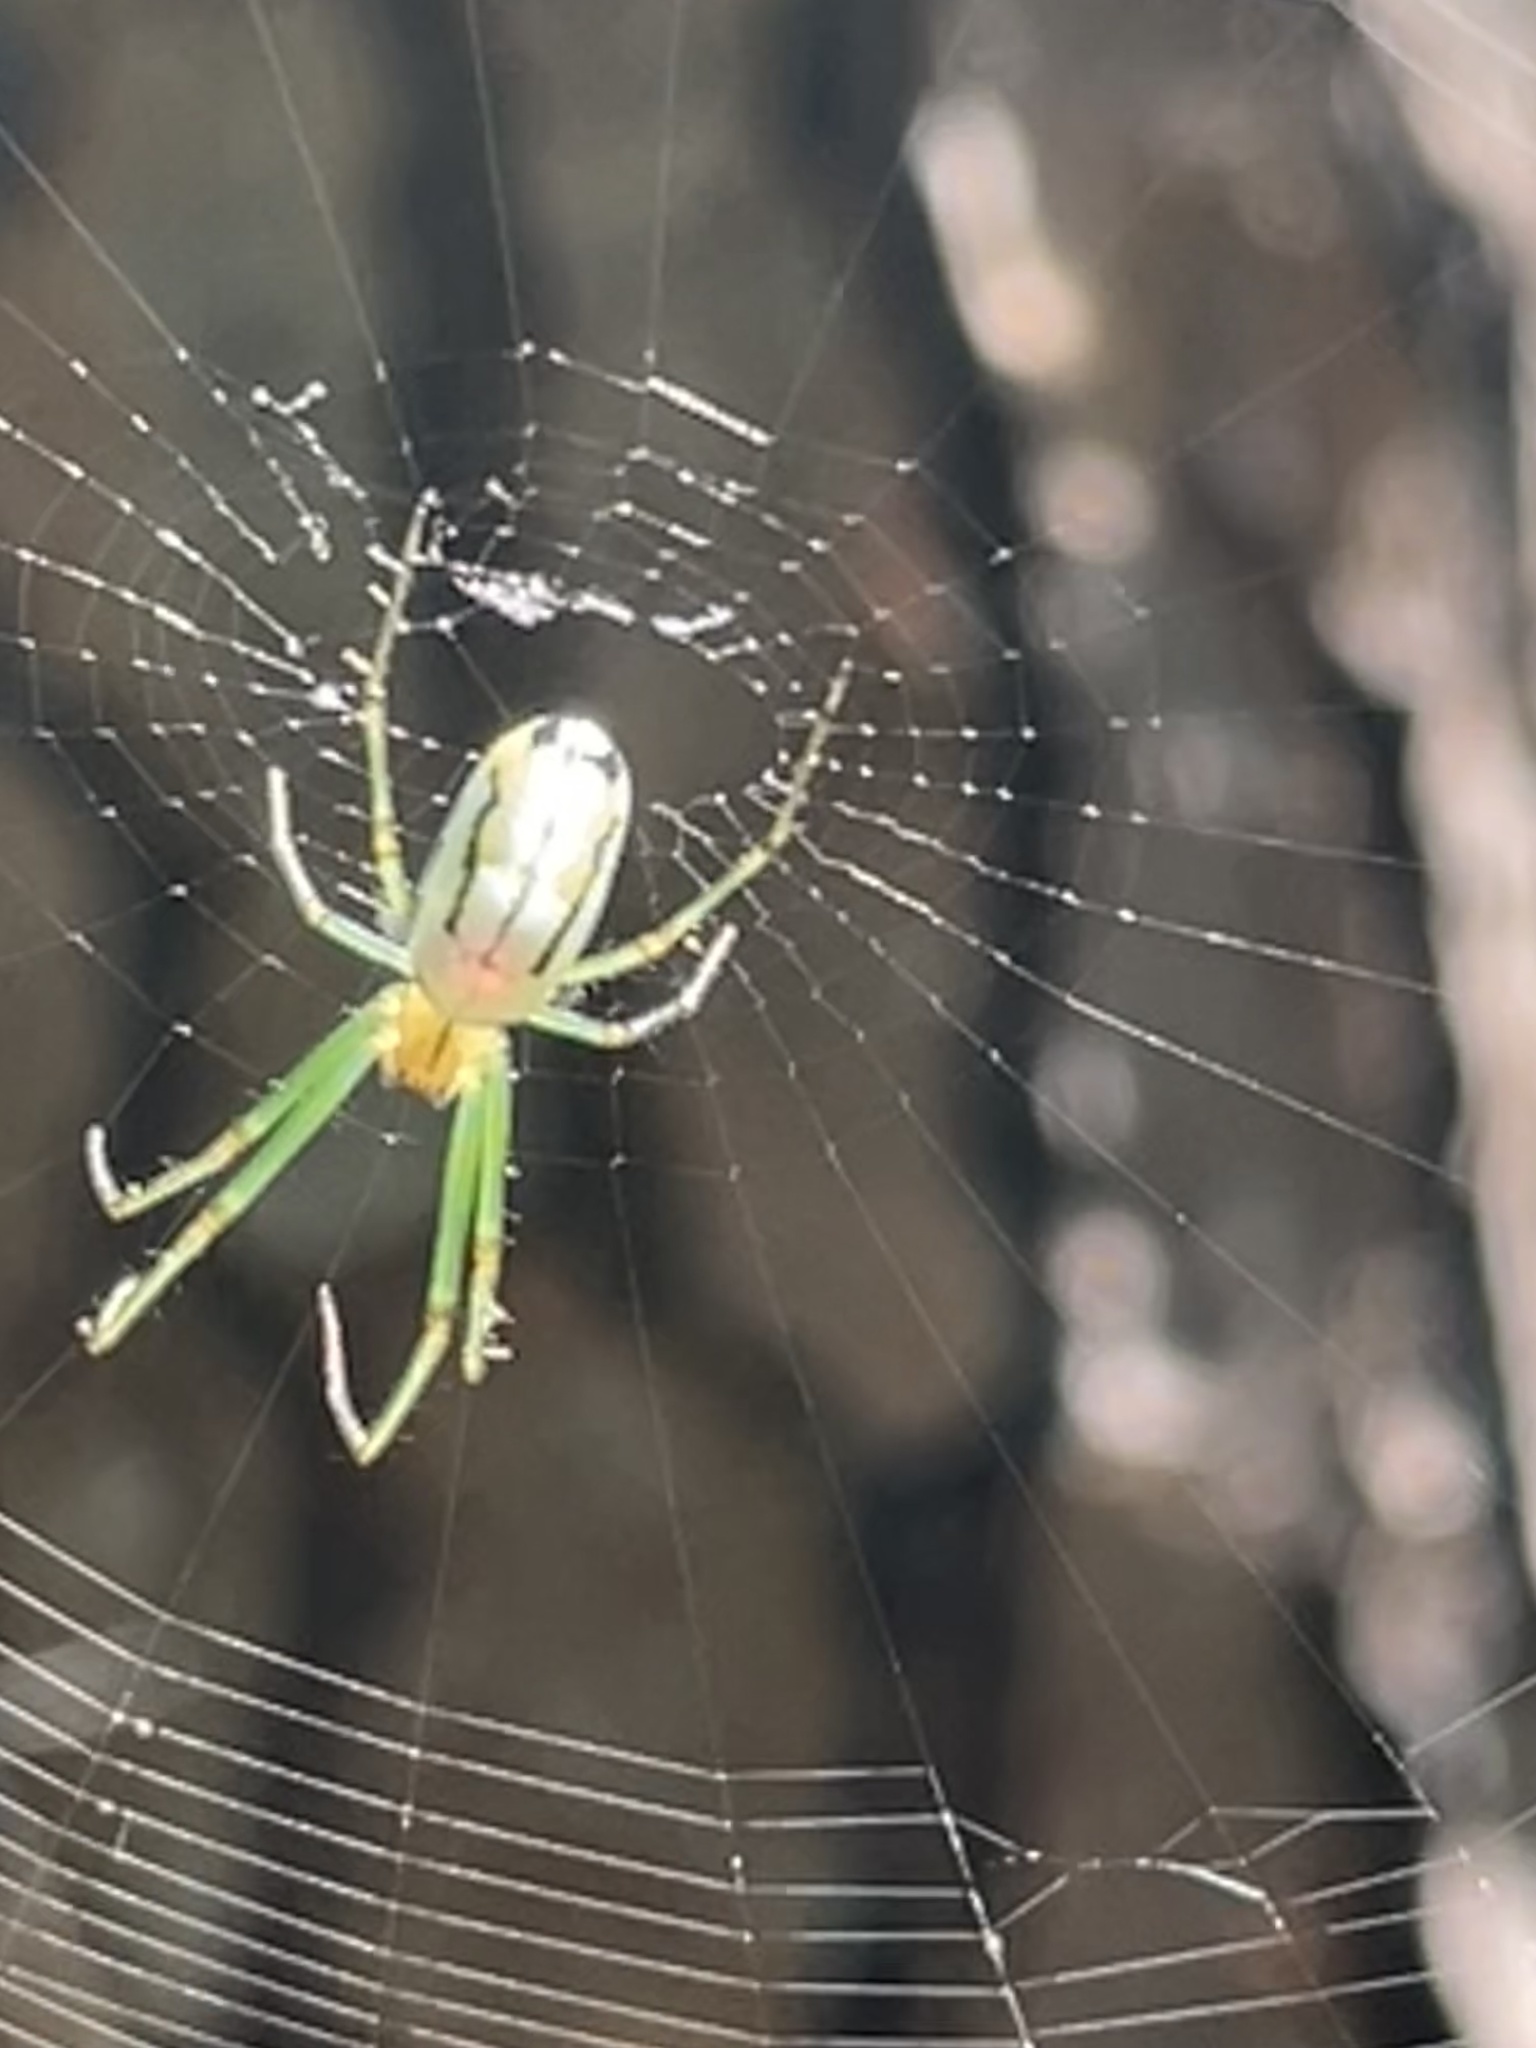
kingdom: Animalia
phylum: Arthropoda
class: Arachnida
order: Araneae
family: Tetragnathidae
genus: Leucauge
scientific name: Leucauge venusta
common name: Longjawed orb weavers
